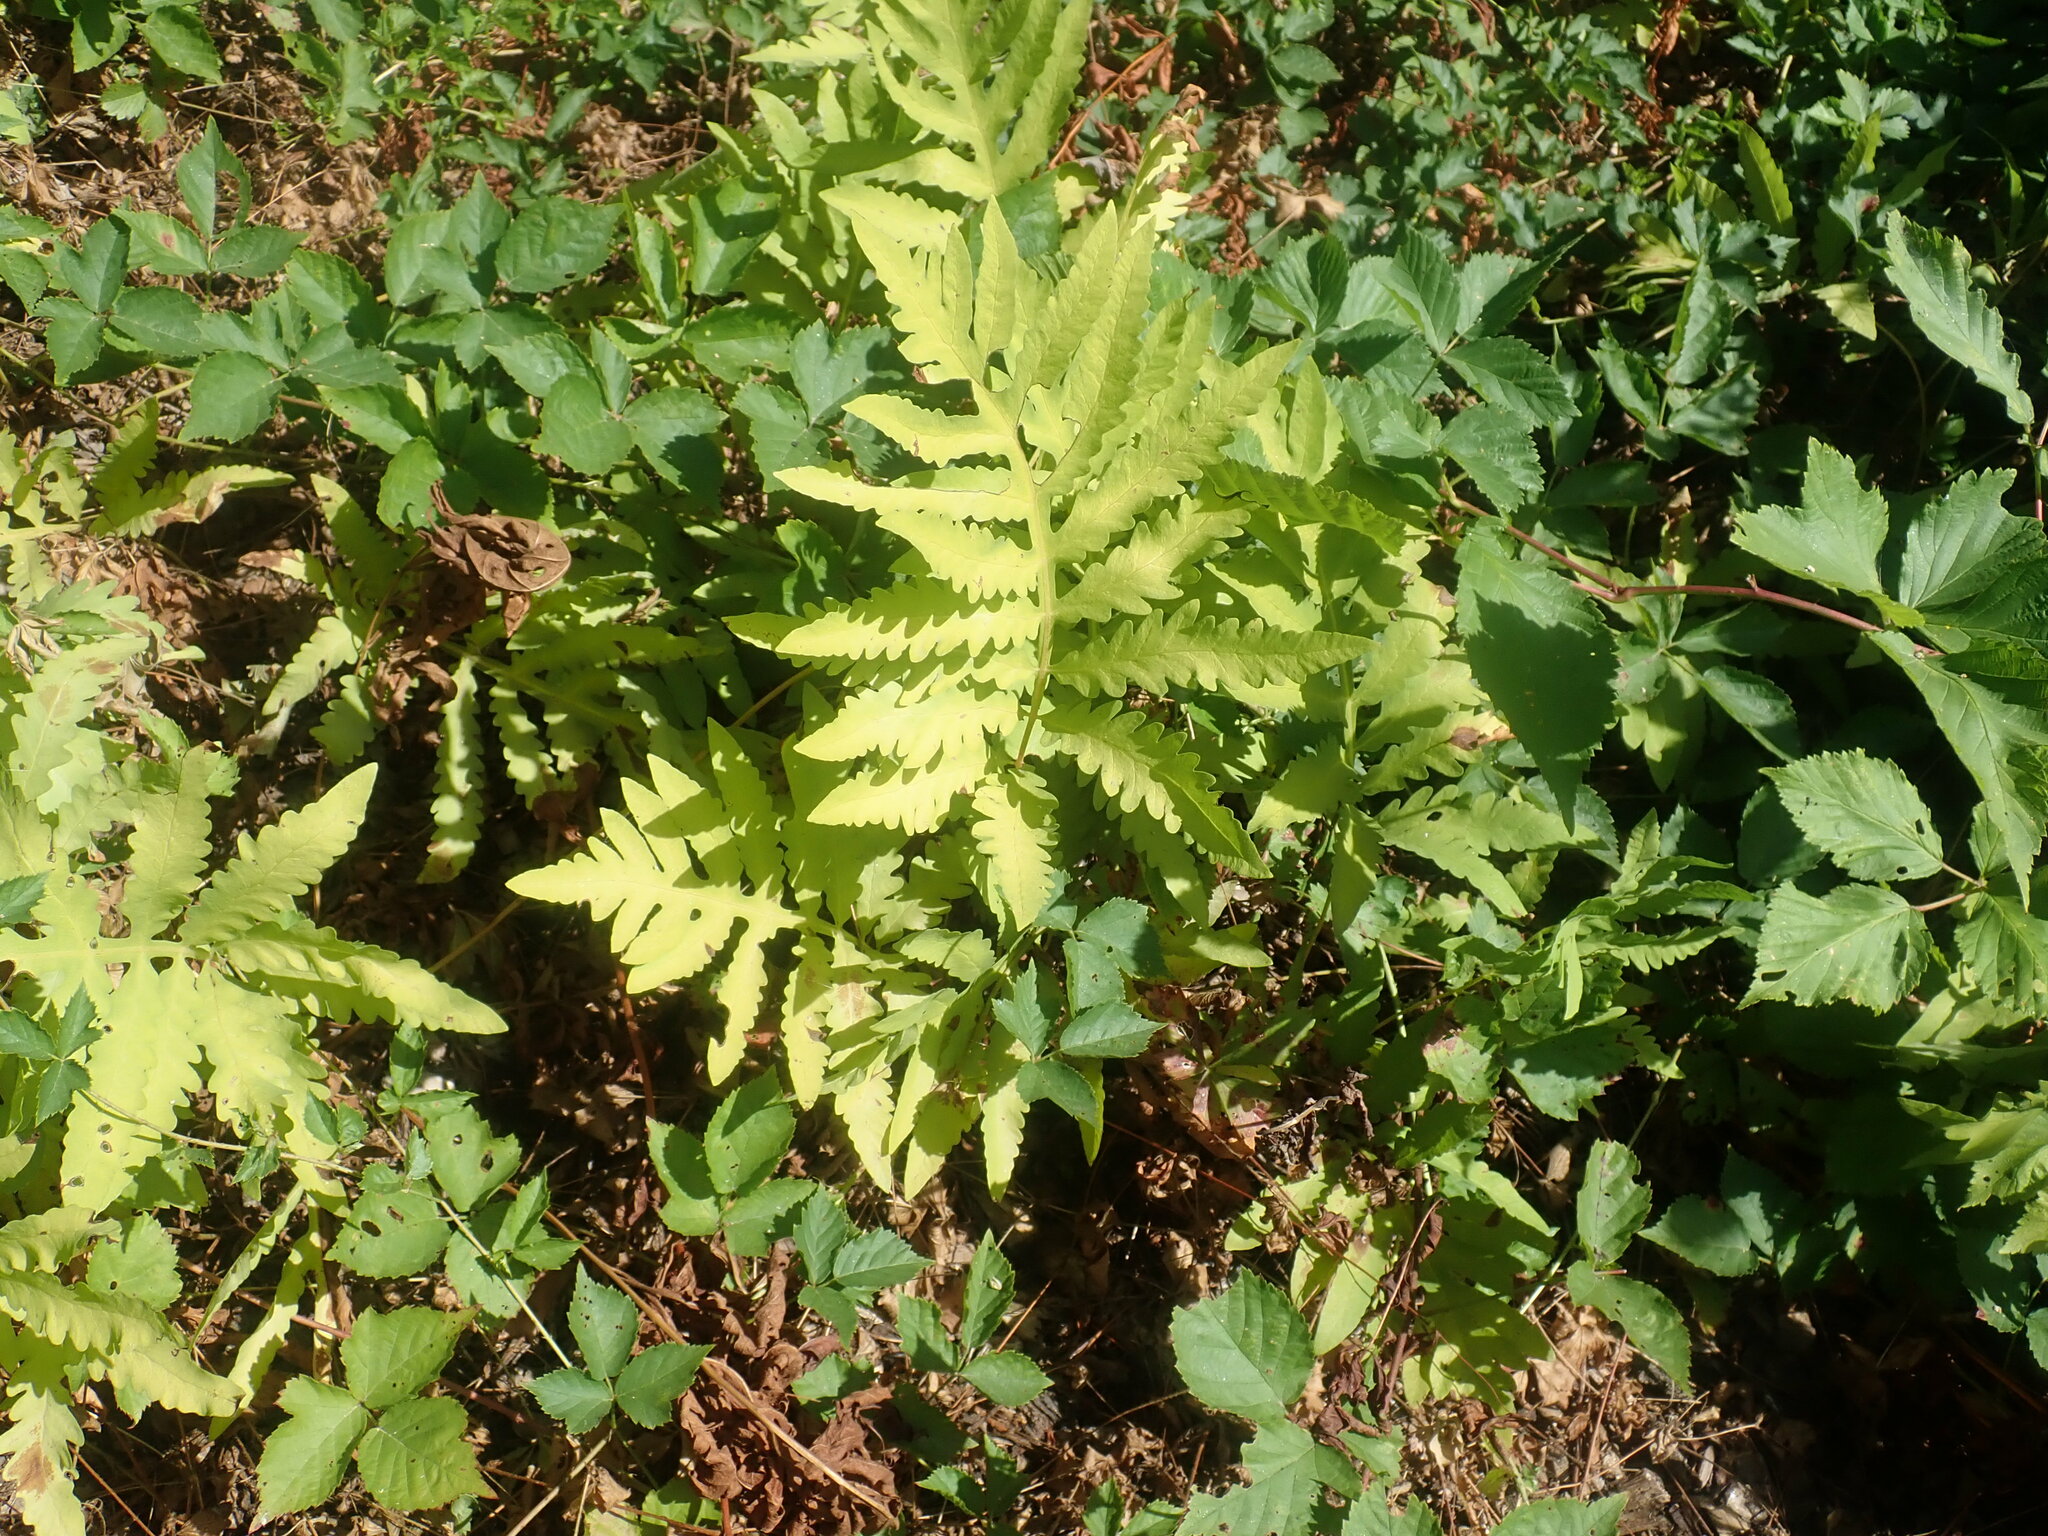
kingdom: Plantae
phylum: Tracheophyta
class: Polypodiopsida
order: Polypodiales
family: Onocleaceae
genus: Onoclea
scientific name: Onoclea sensibilis
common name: Sensitive fern
